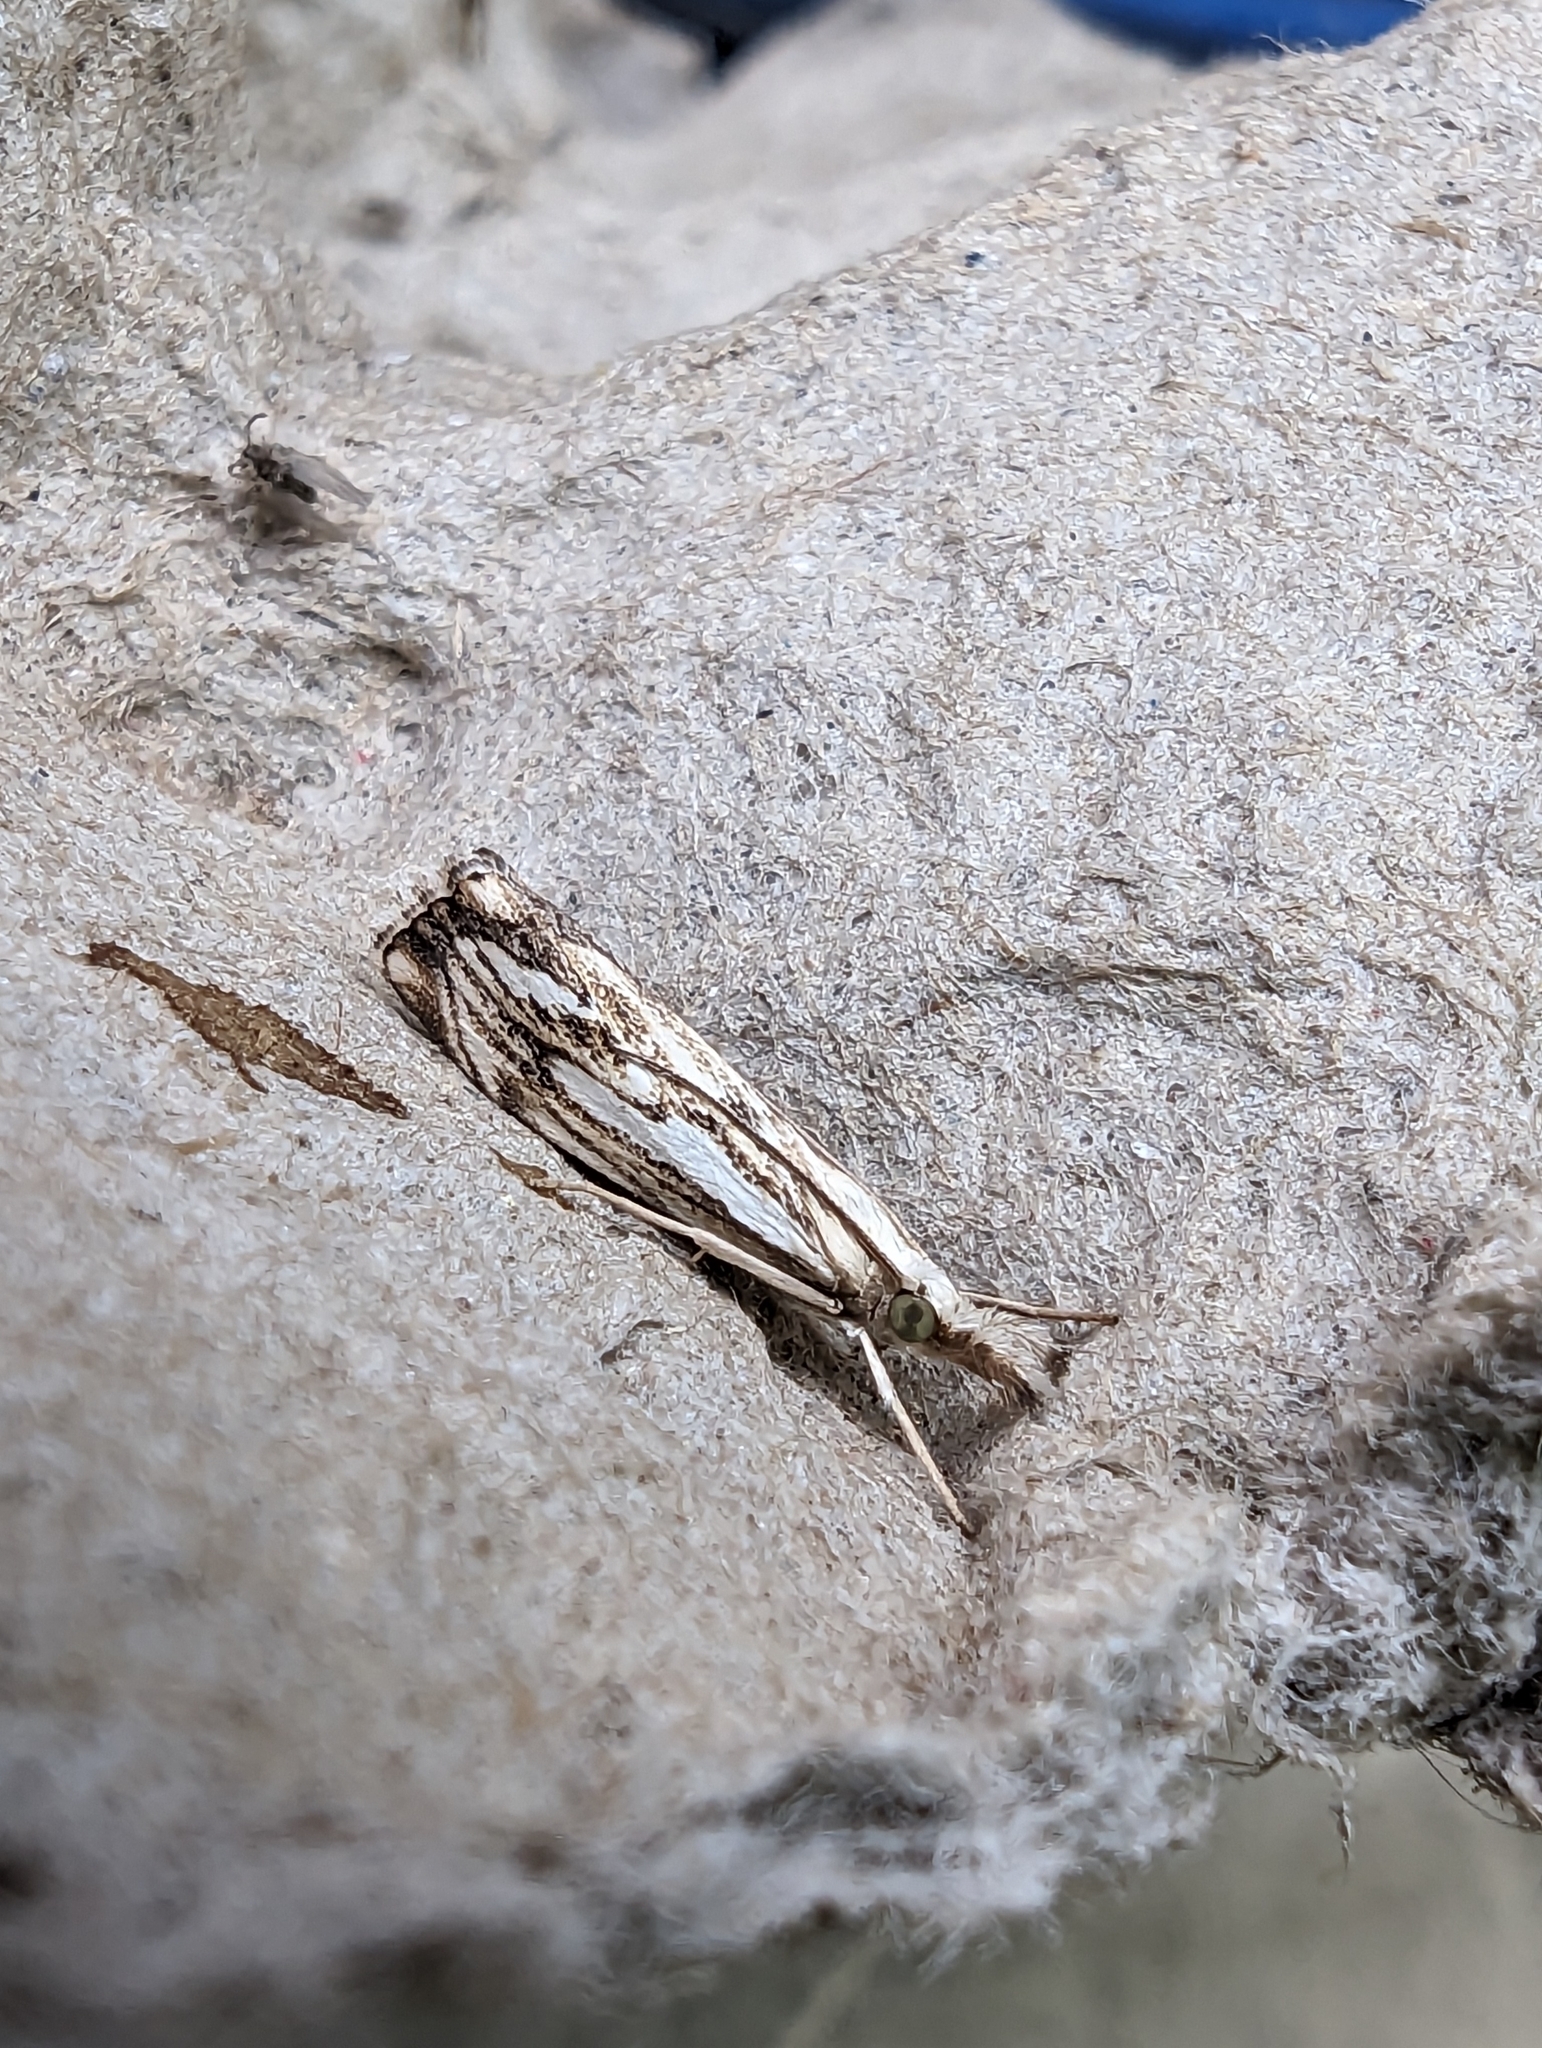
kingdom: Animalia
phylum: Arthropoda
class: Insecta
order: Lepidoptera
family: Crambidae
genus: Catoptria
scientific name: Catoptria falsella
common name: Chequered grass-veneer
